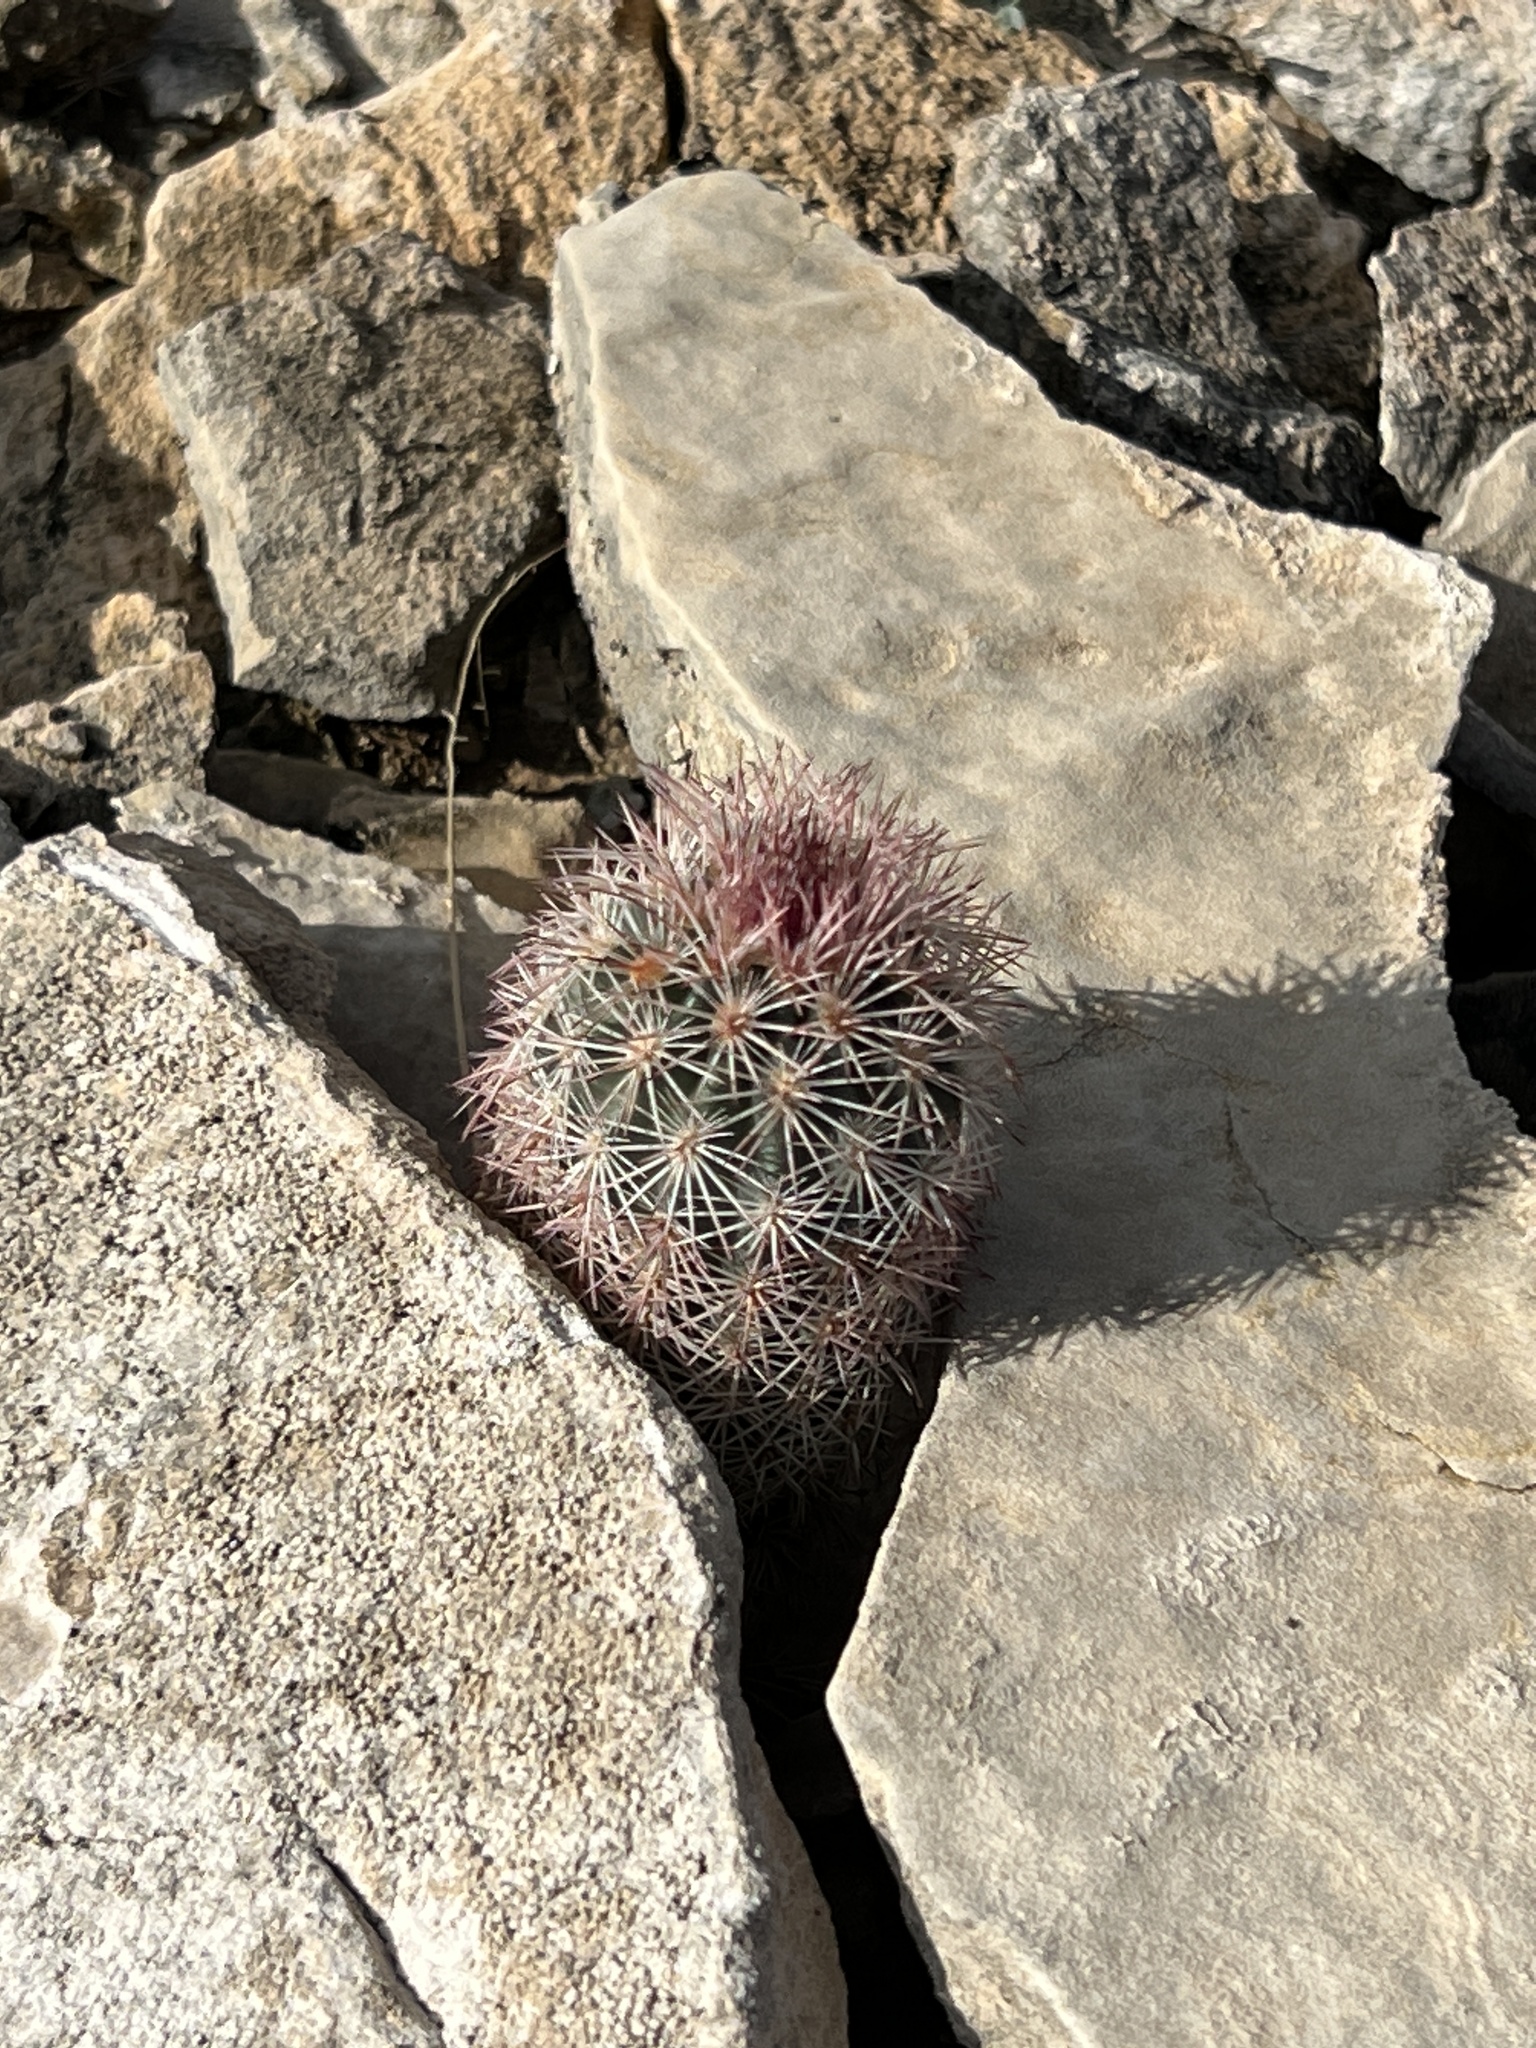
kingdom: Plantae
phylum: Tracheophyta
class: Magnoliopsida
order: Caryophyllales
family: Cactaceae
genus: Echinocereus
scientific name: Echinocereus dasyacanthus
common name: Spiny hedgehog cactus
